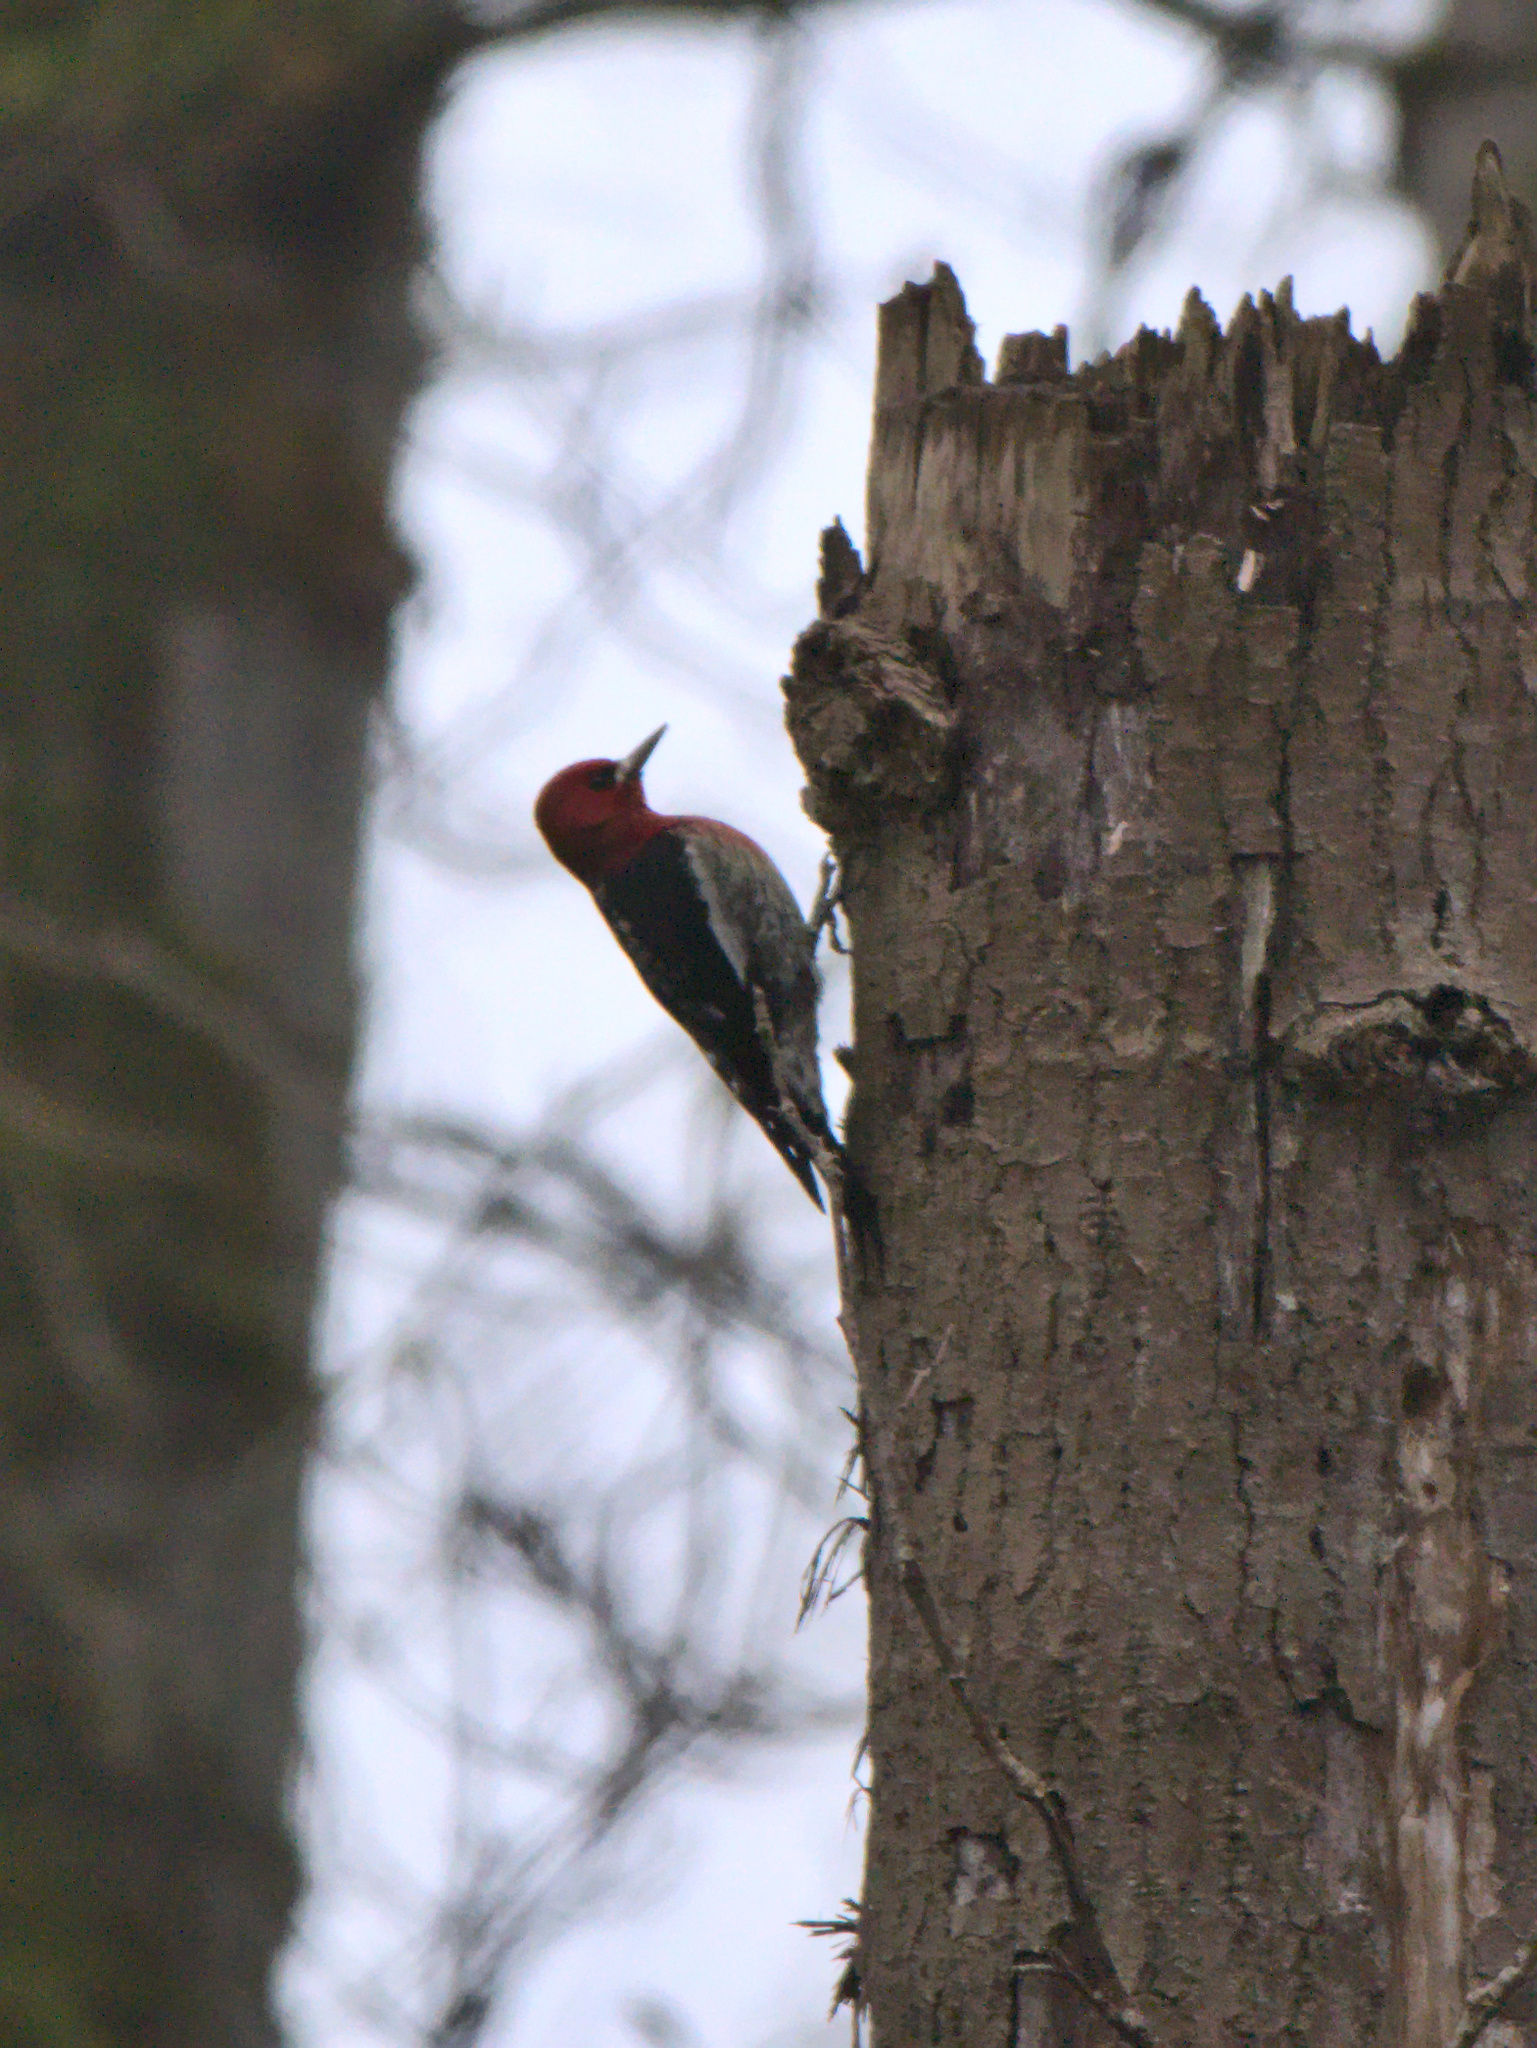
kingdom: Animalia
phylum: Chordata
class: Aves
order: Piciformes
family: Picidae
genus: Sphyrapicus
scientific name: Sphyrapicus ruber
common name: Red-breasted sapsucker
